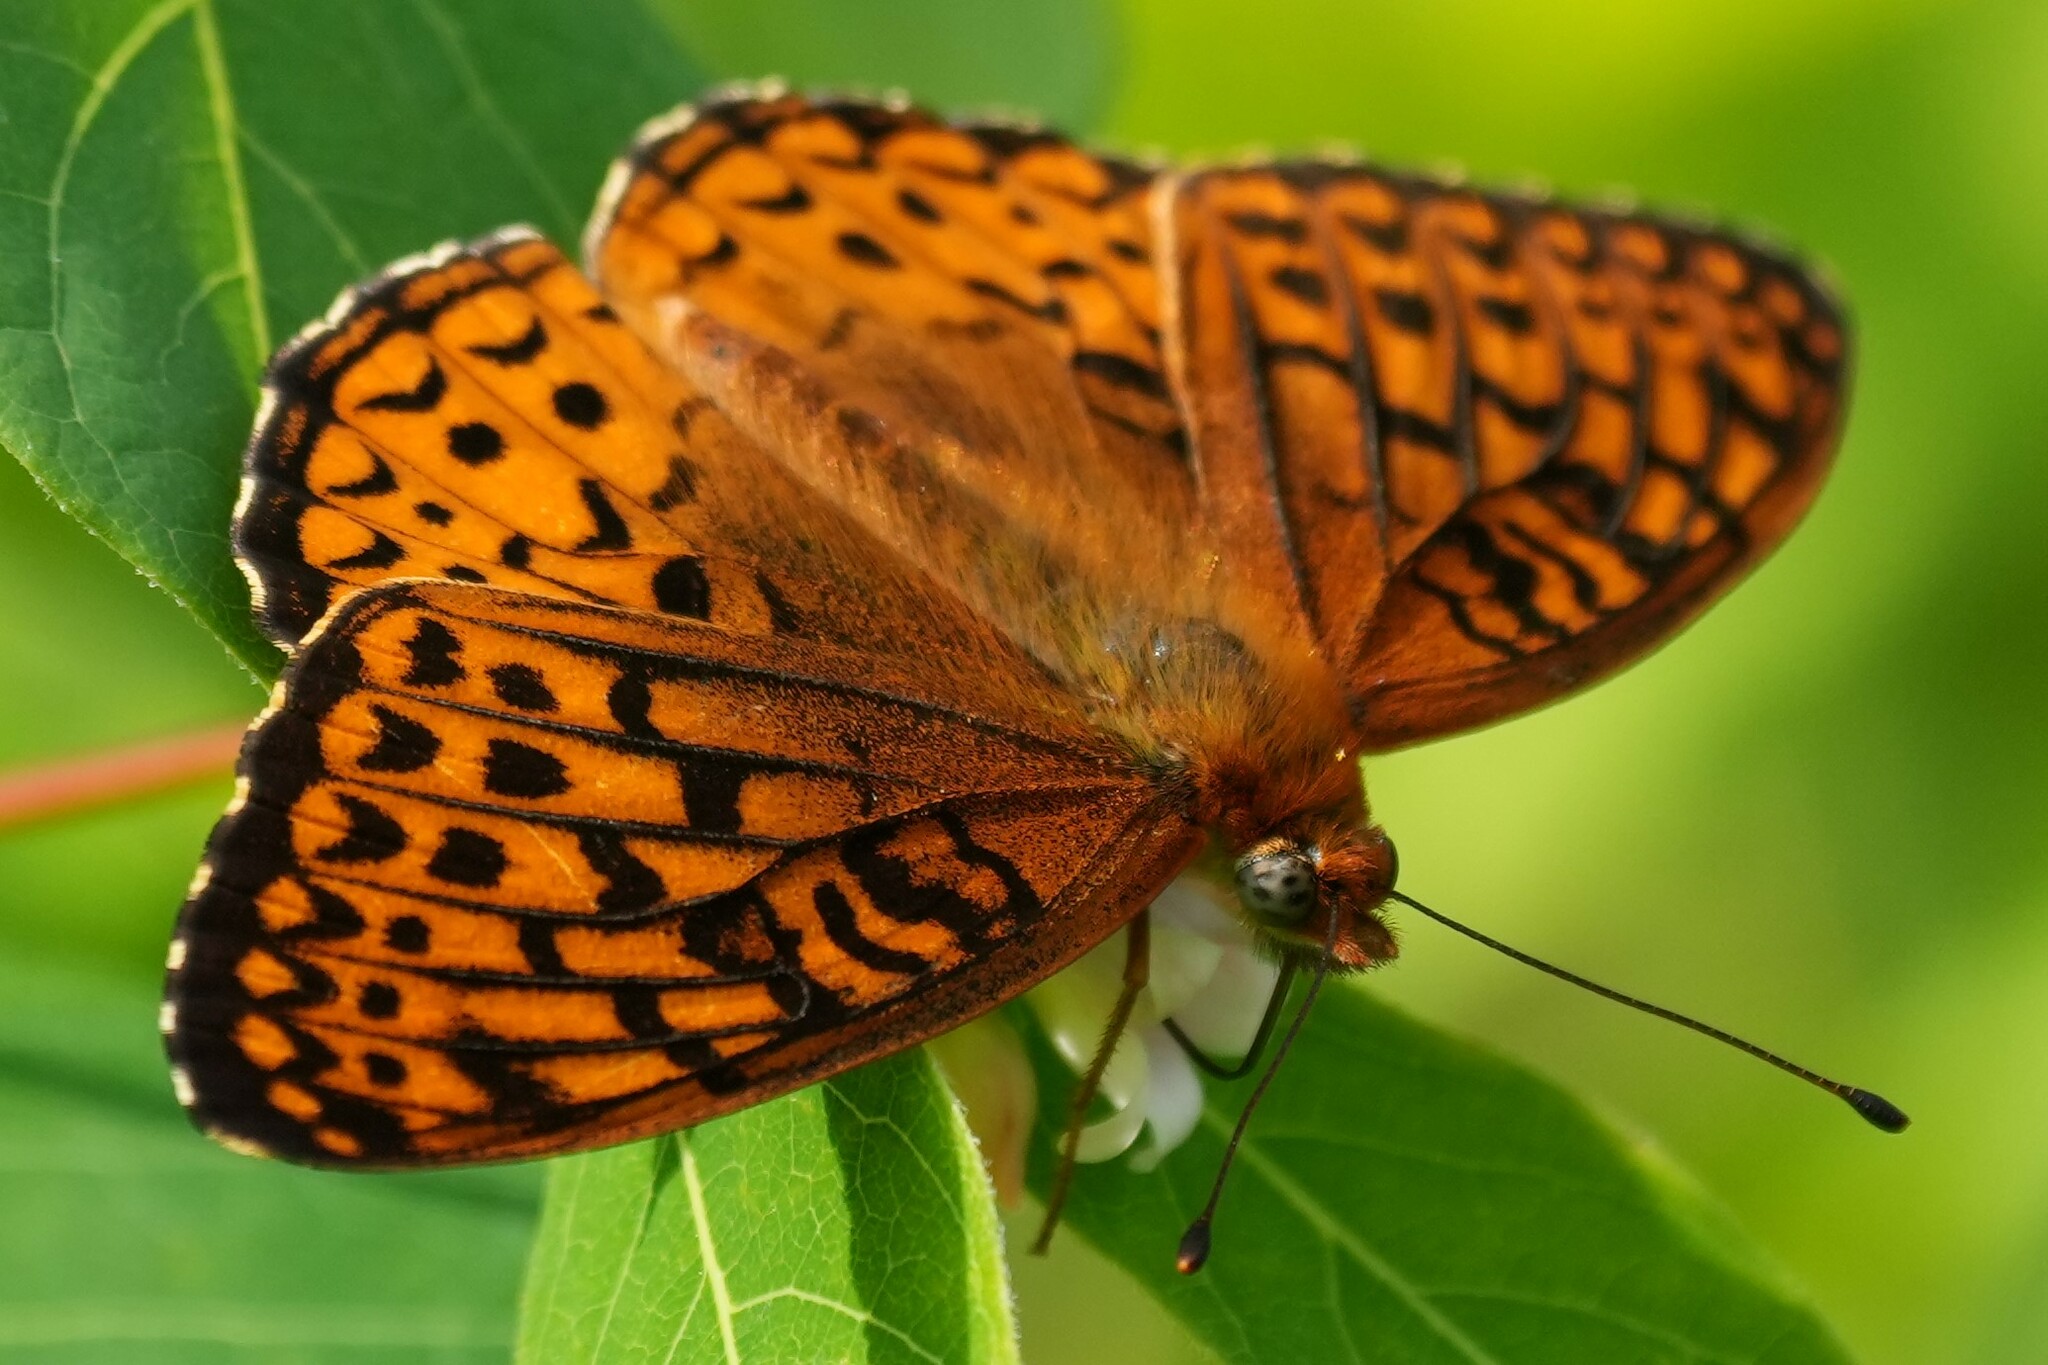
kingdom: Animalia
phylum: Arthropoda
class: Insecta
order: Lepidoptera
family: Nymphalidae
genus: Speyeria
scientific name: Speyeria atlantis
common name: Atlantis fritillary
